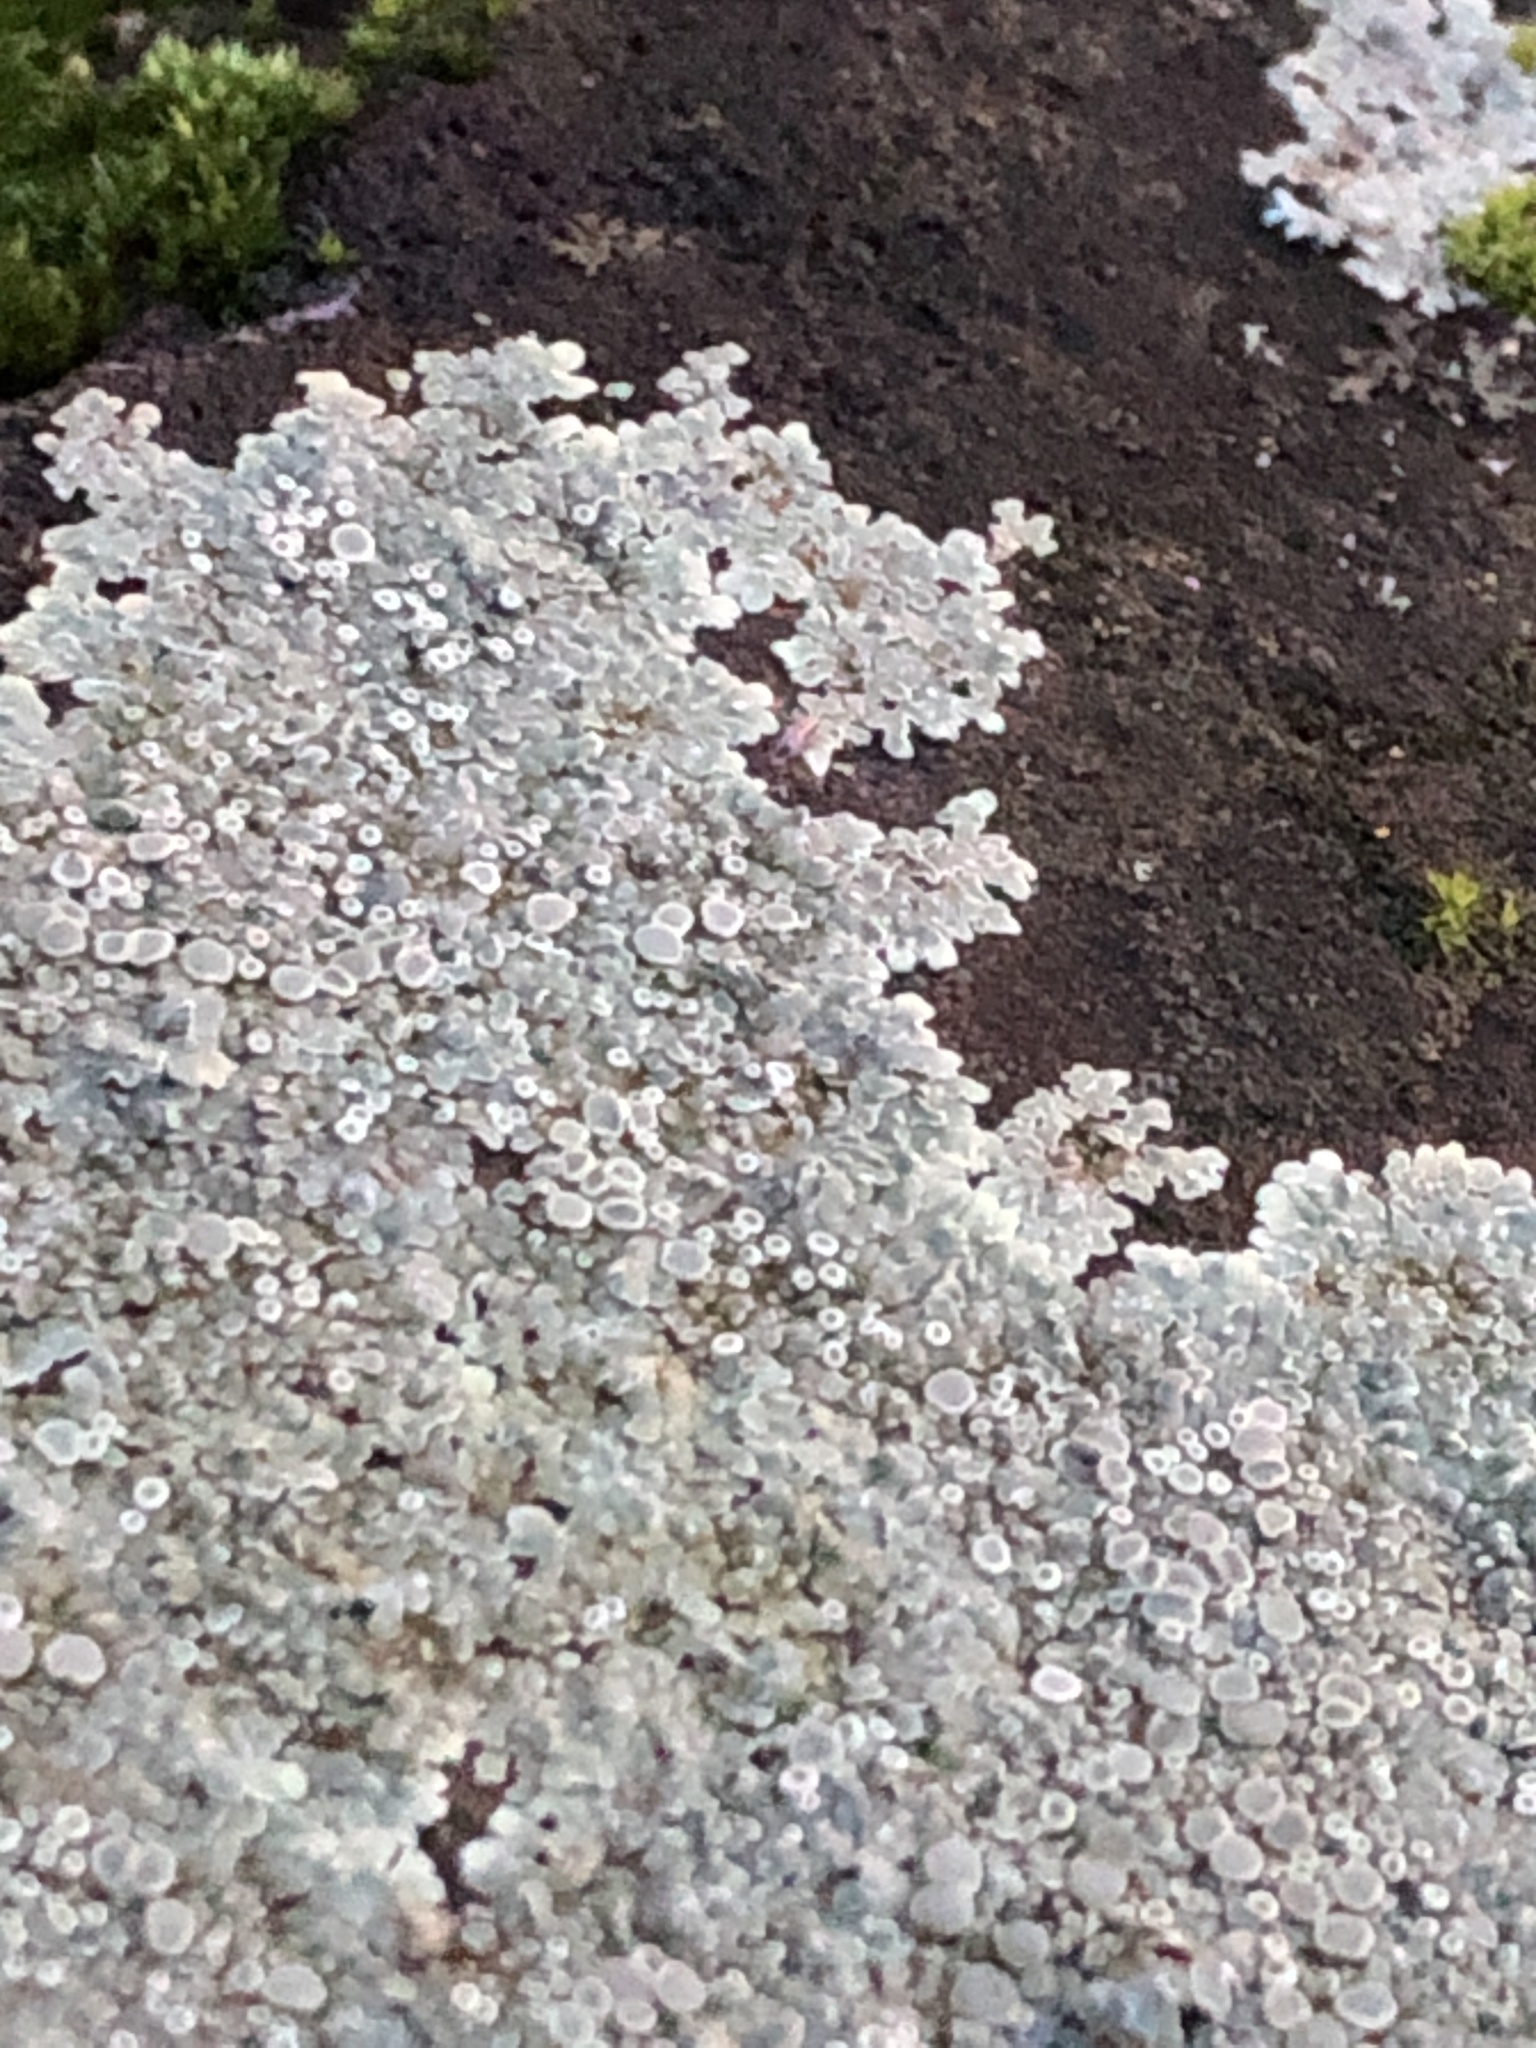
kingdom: Fungi
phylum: Ascomycota
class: Lecanoromycetes
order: Lecanorales
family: Lecanoraceae
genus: Protoparmeliopsis
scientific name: Protoparmeliopsis muralis
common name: Stonewall rim lichen
